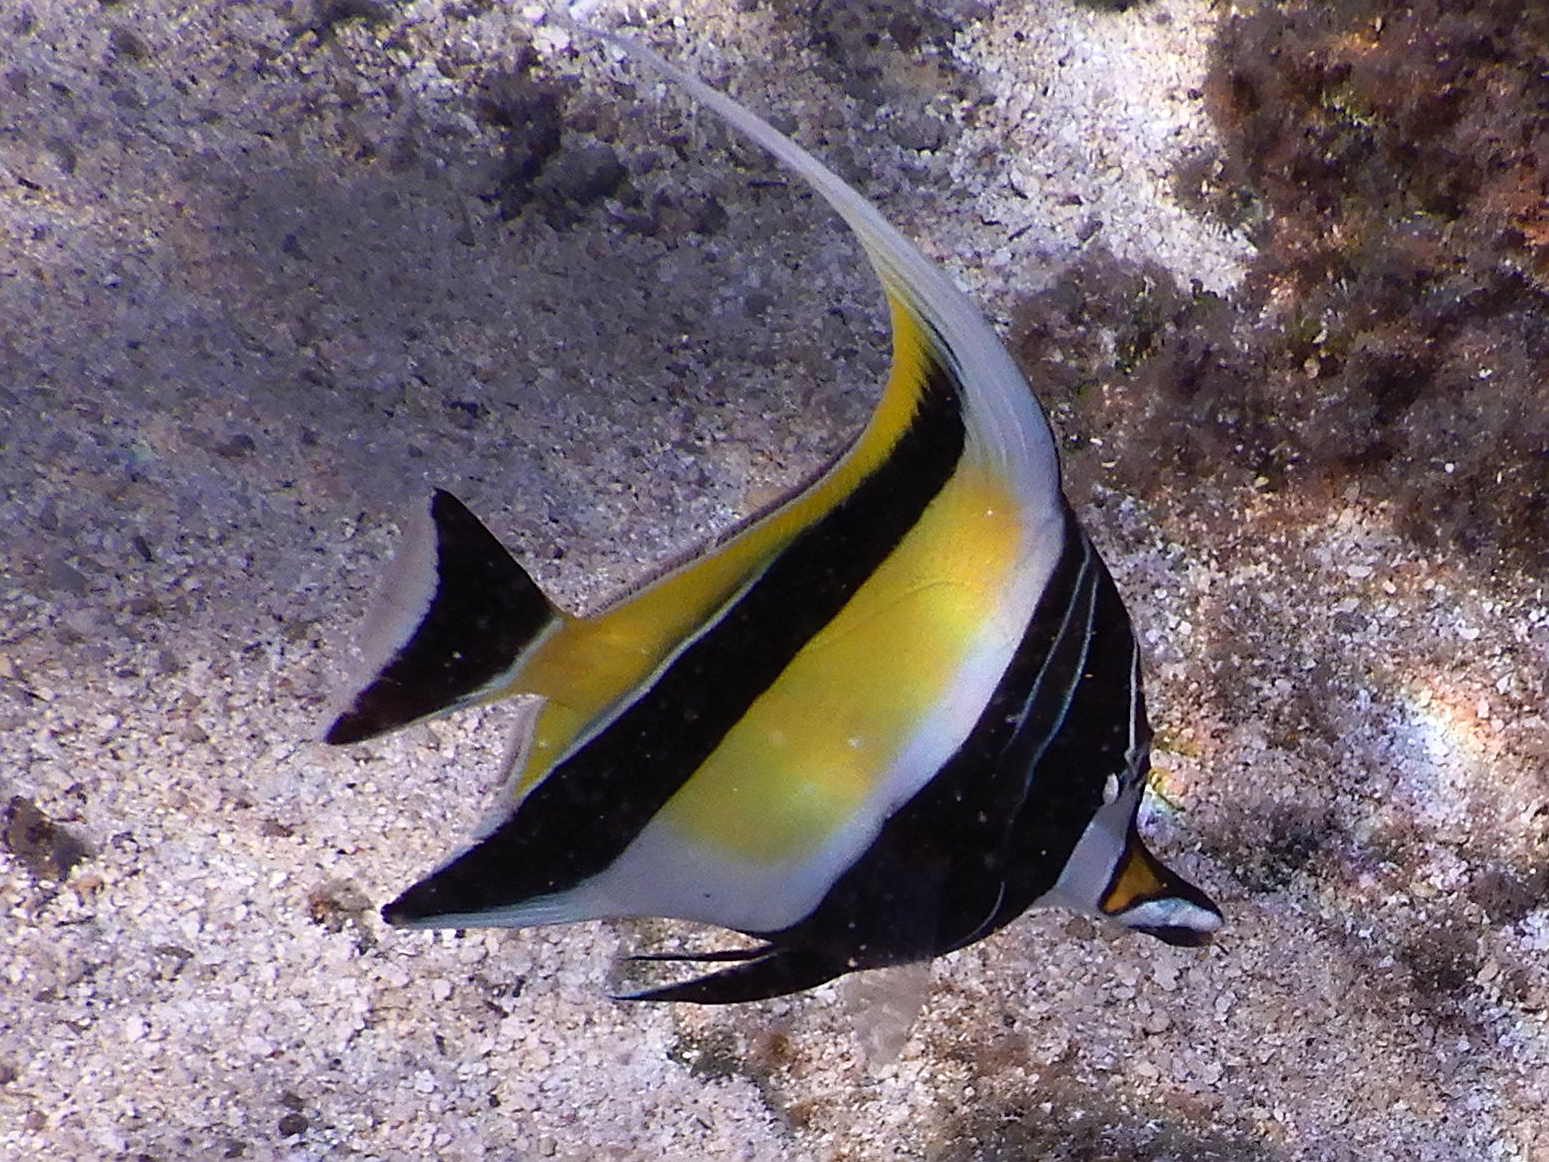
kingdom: Animalia
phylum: Chordata
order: Perciformes
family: Zanclidae
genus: Zanclus
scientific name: Zanclus cornutus
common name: Moorish idol
